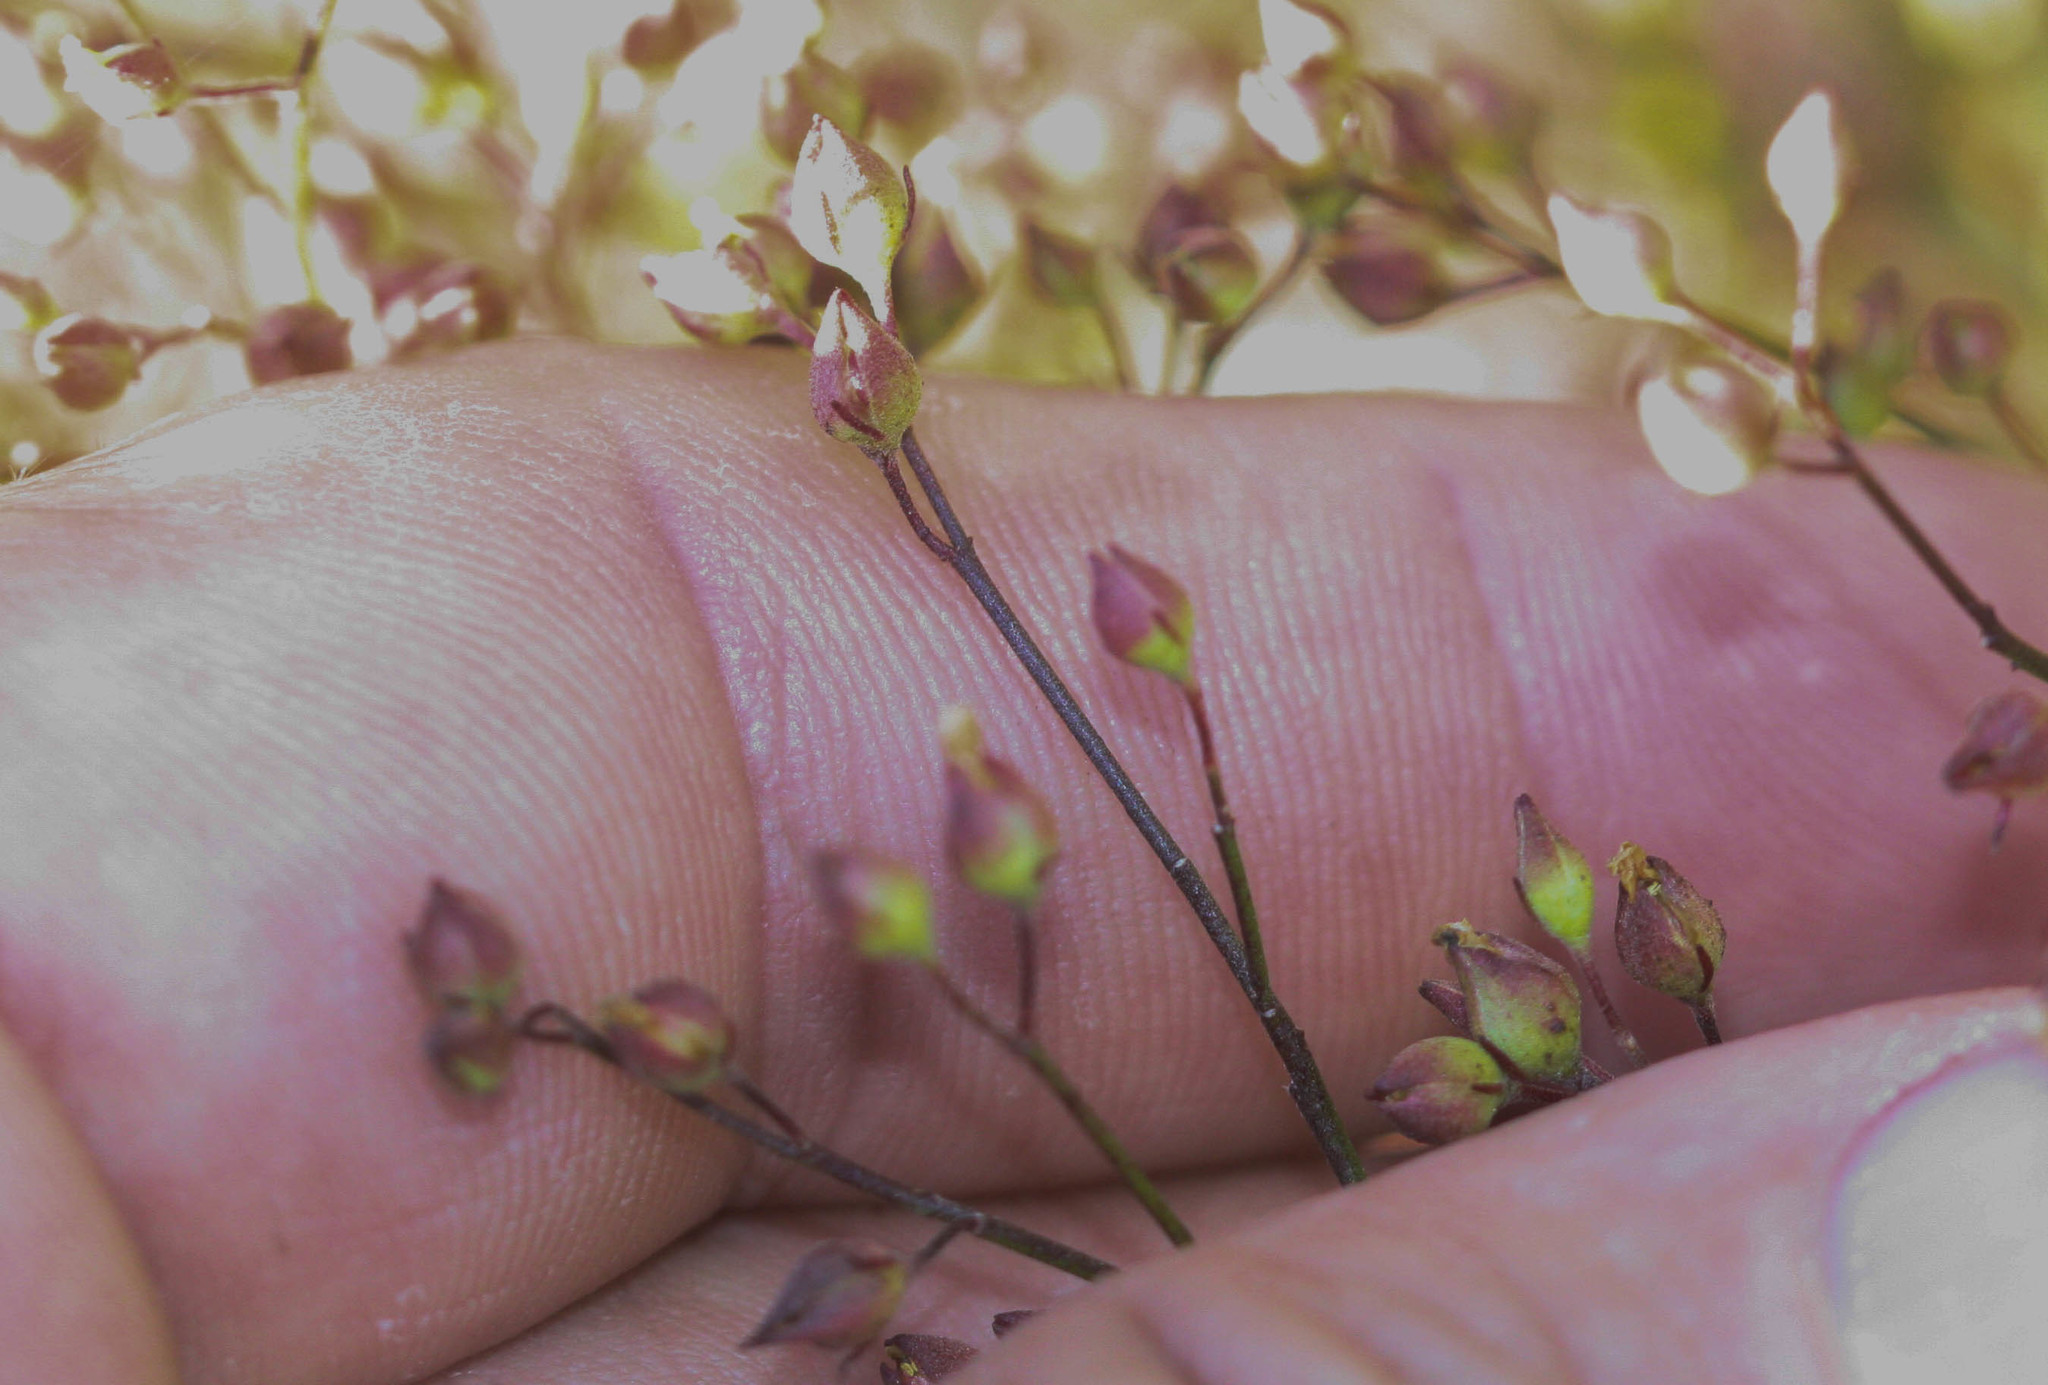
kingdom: Plantae
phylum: Tracheophyta
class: Magnoliopsida
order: Malvales
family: Cistaceae
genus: Crocanthemum
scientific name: Crocanthemum scoparium
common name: Broom-rose
